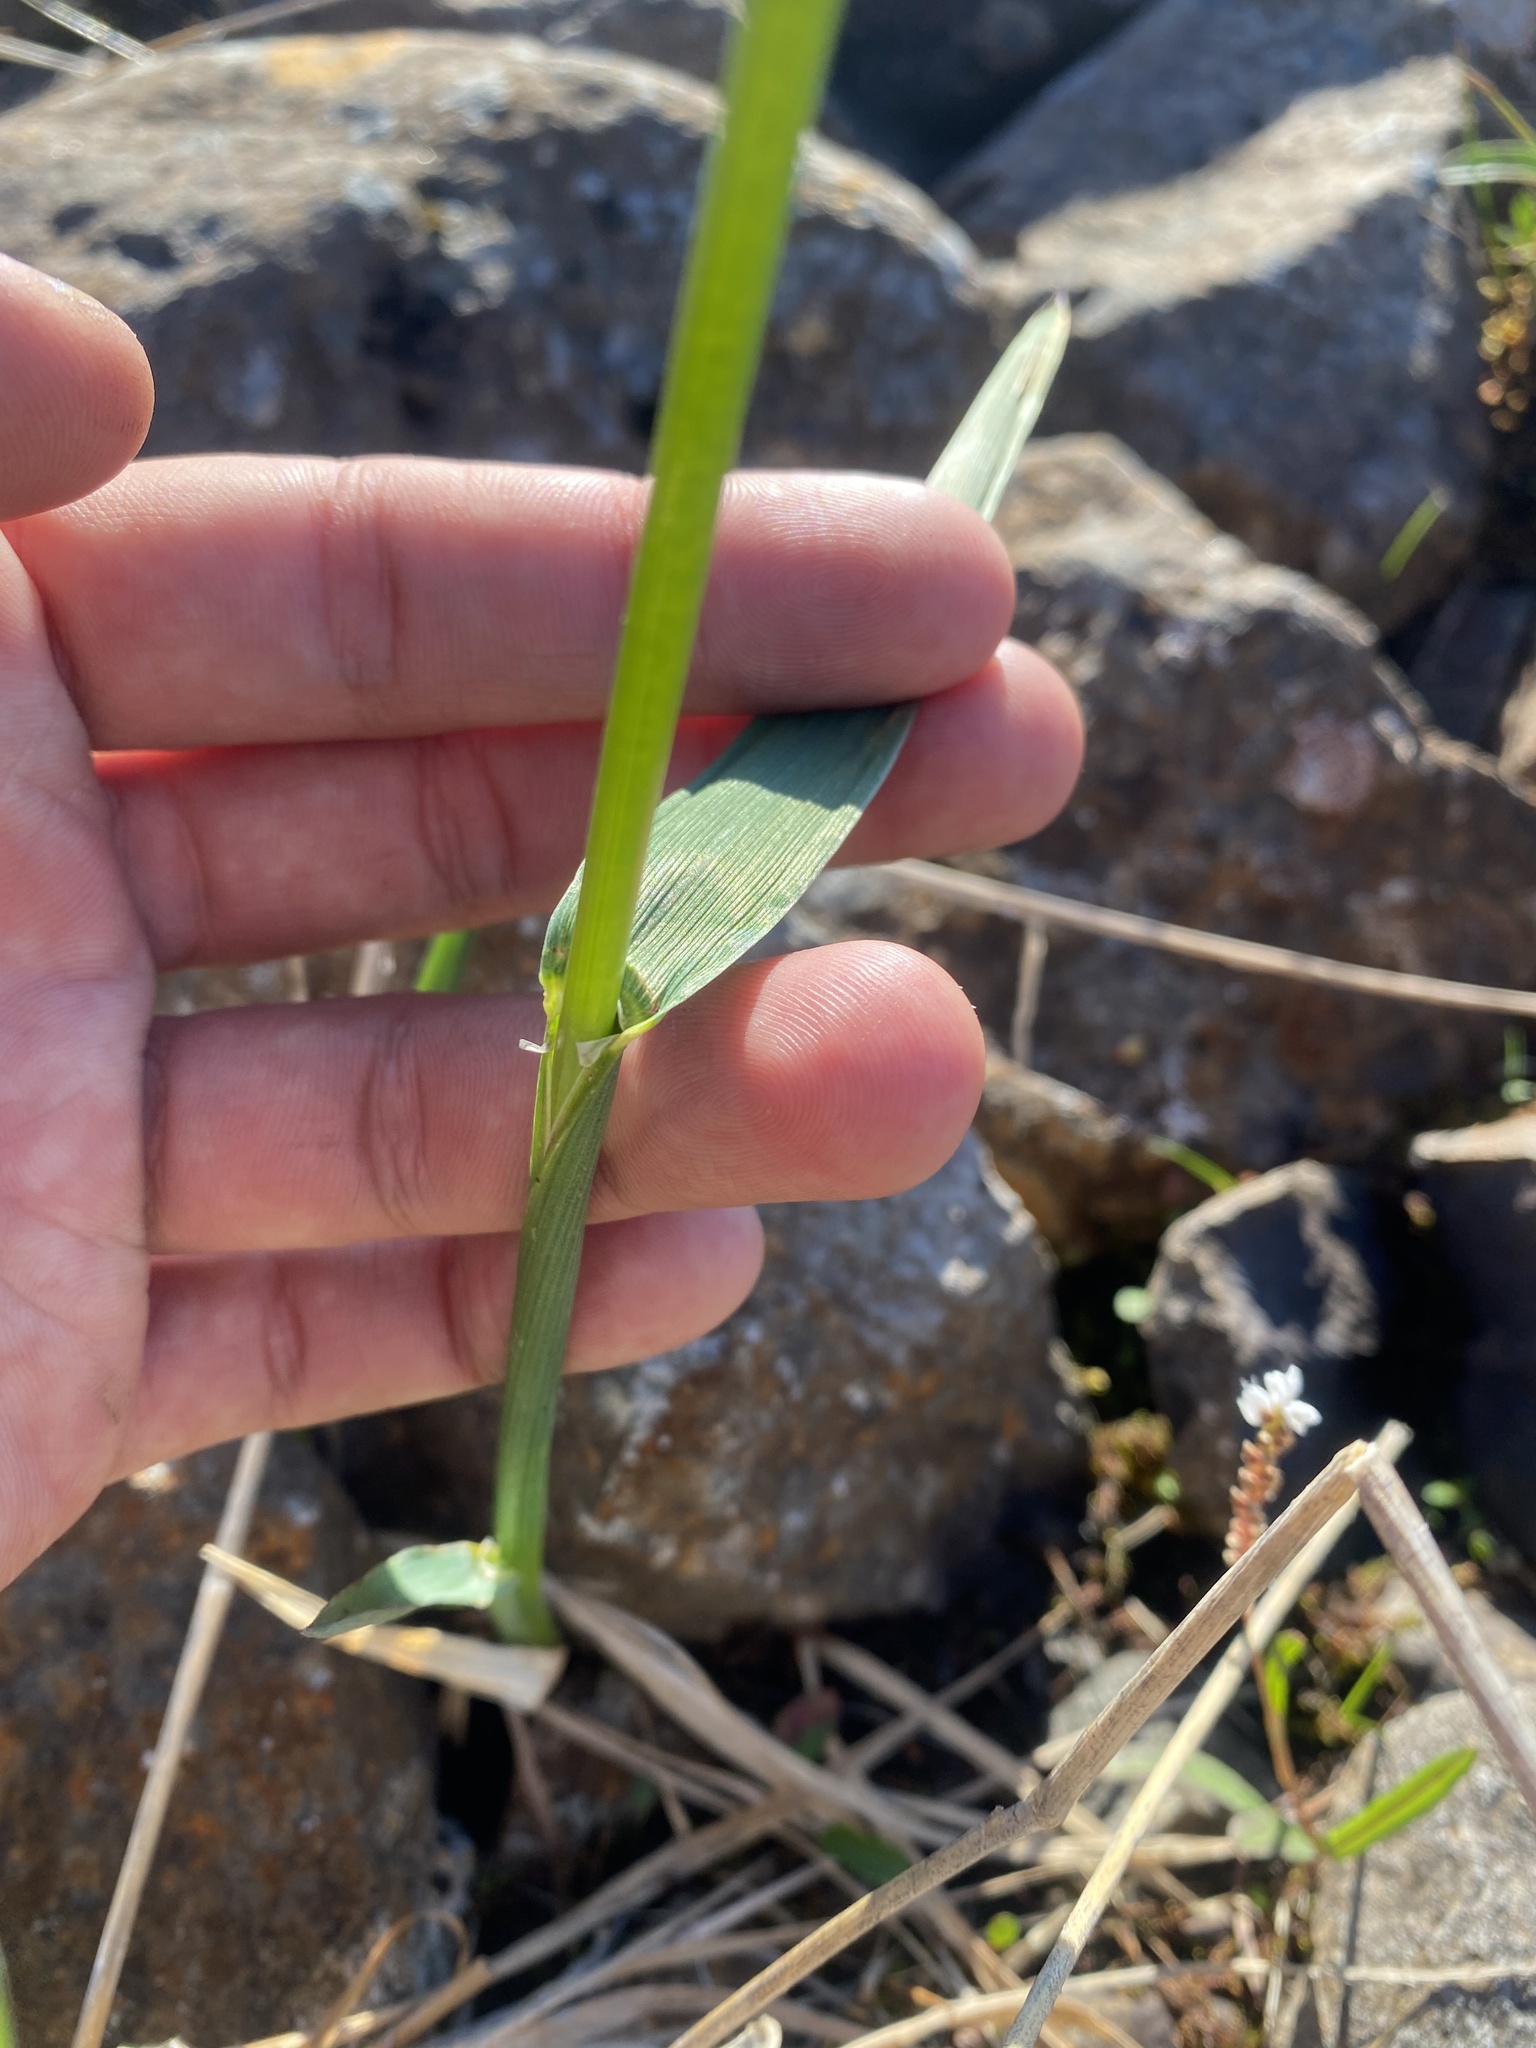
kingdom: Plantae
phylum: Tracheophyta
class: Liliopsida
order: Poales
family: Poaceae
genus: Arctagrostis
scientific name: Arctagrostis latifolia
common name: Arctic grass
